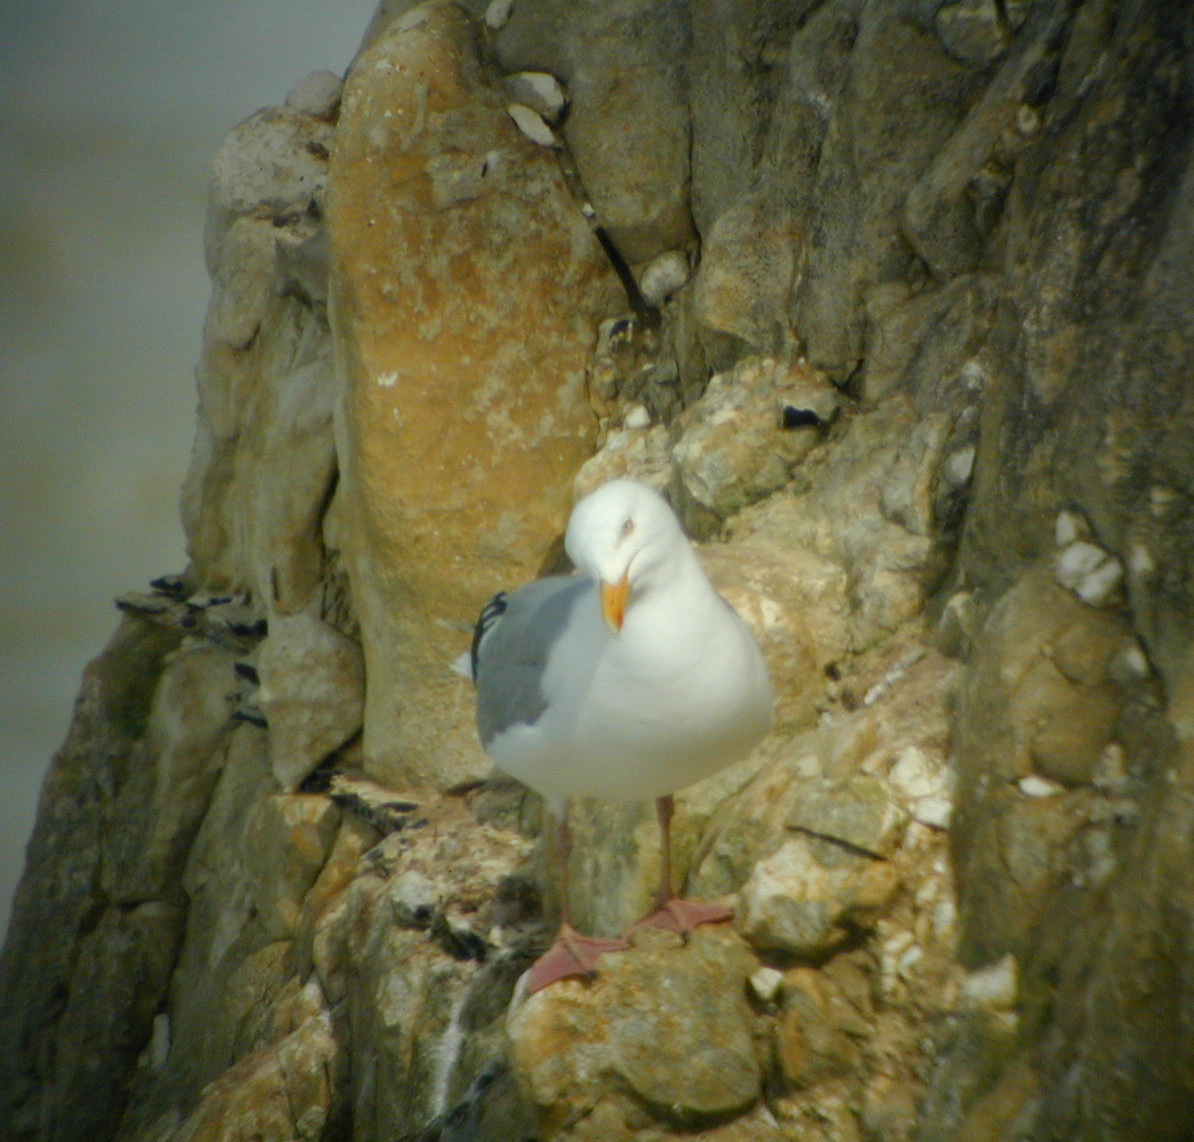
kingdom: Animalia
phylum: Chordata
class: Aves
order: Charadriiformes
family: Laridae
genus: Larus
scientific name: Larus argentatus
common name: Herring gull
